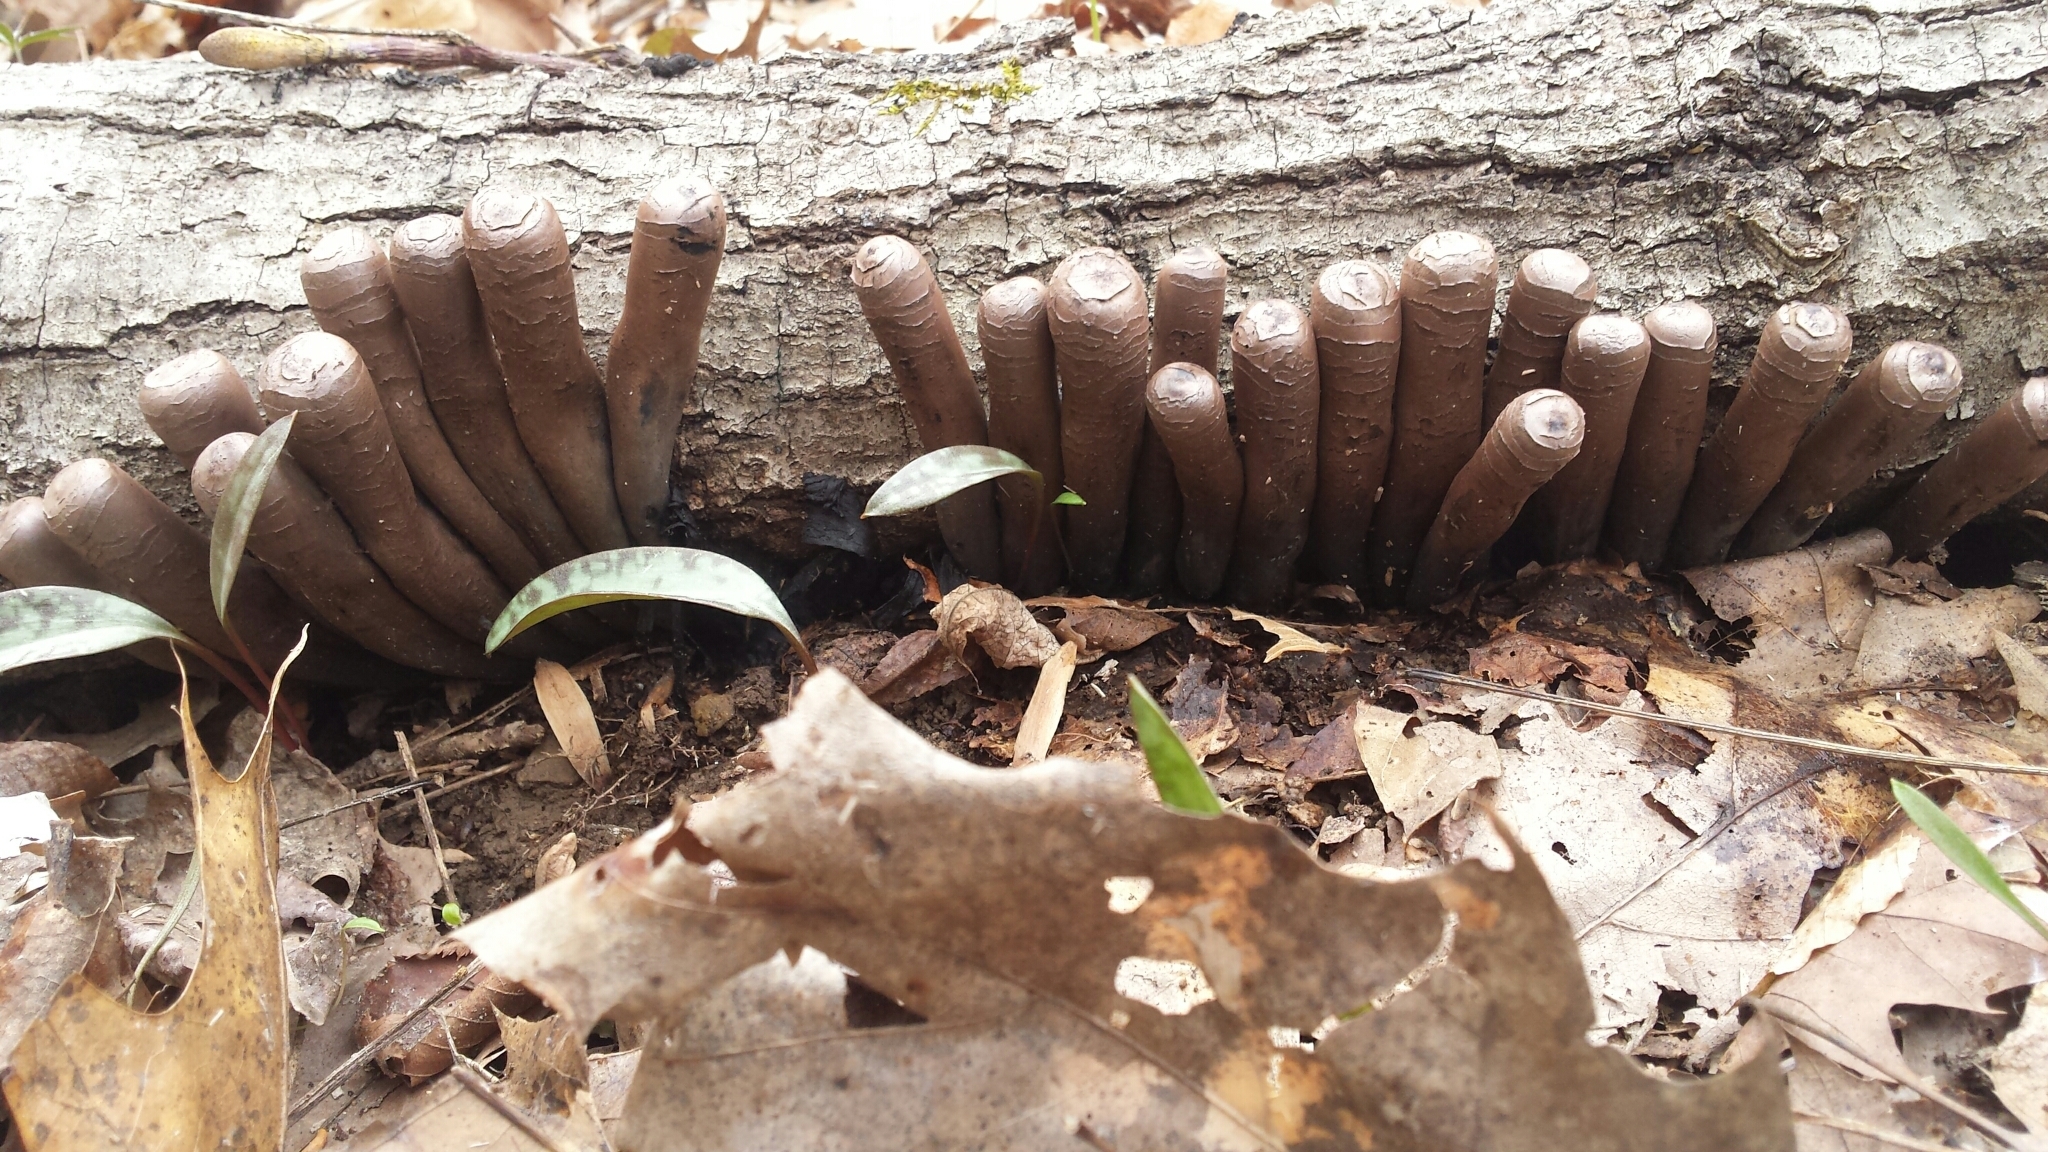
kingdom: Fungi
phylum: Ascomycota
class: Pezizomycetes
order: Pezizales
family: Sarcosomataceae
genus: Urnula
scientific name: Urnula craterium
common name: Devil's urn
